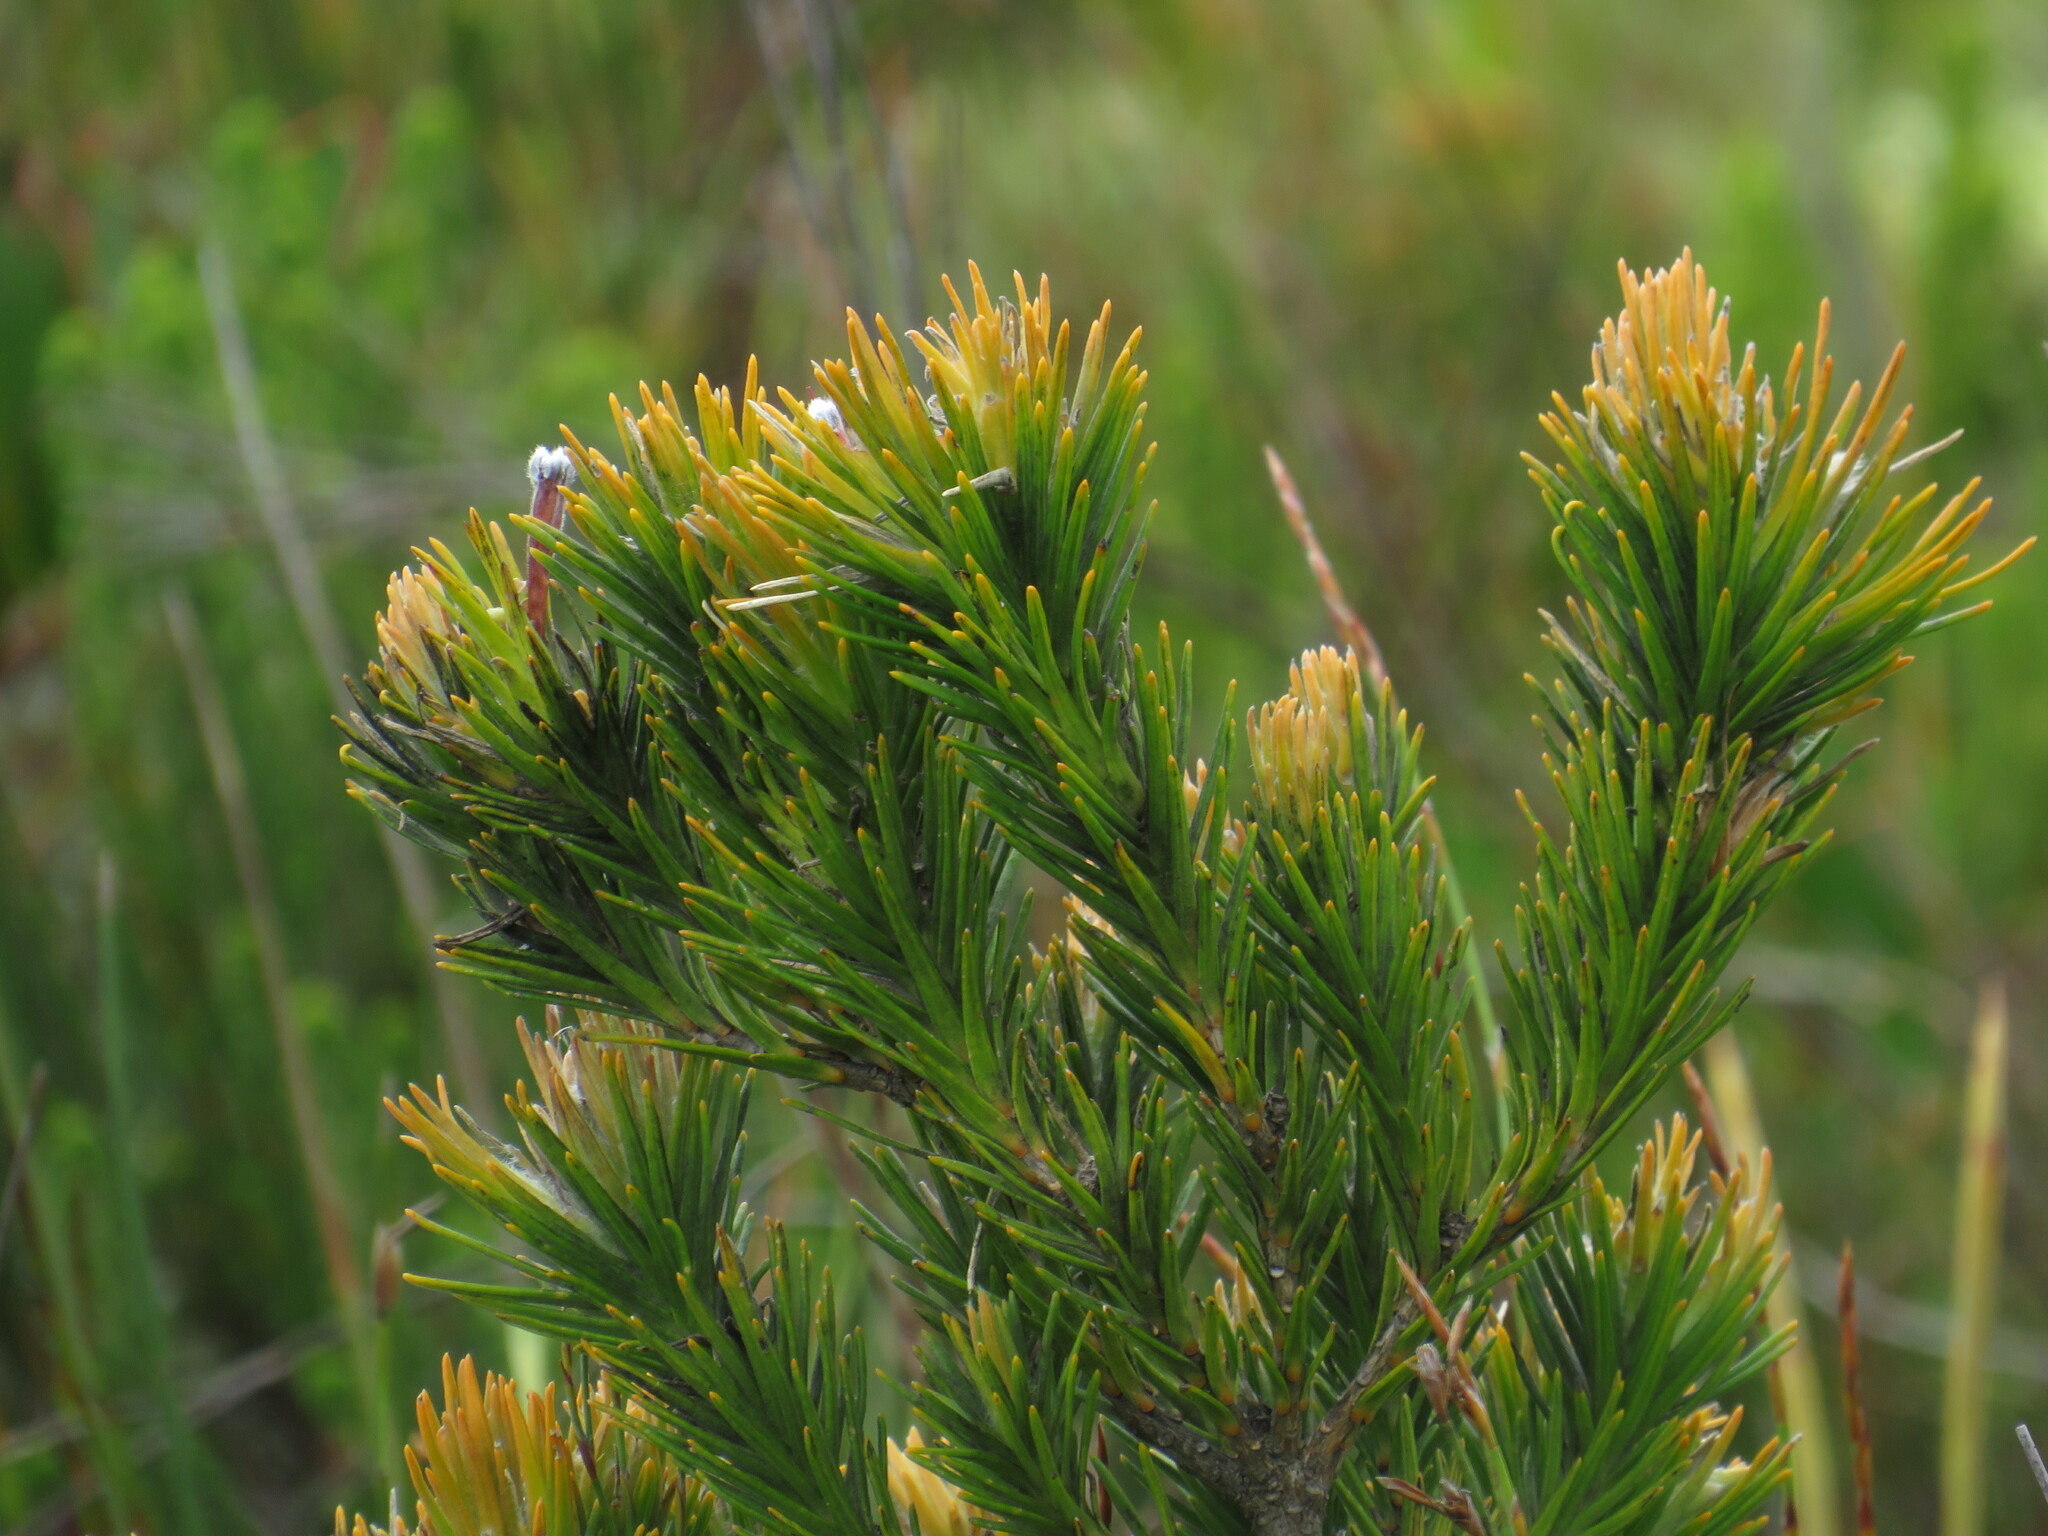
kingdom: Plantae
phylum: Tracheophyta
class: Magnoliopsida
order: Lamiales
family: Stilbaceae
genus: Retzia
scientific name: Retzia capensis
